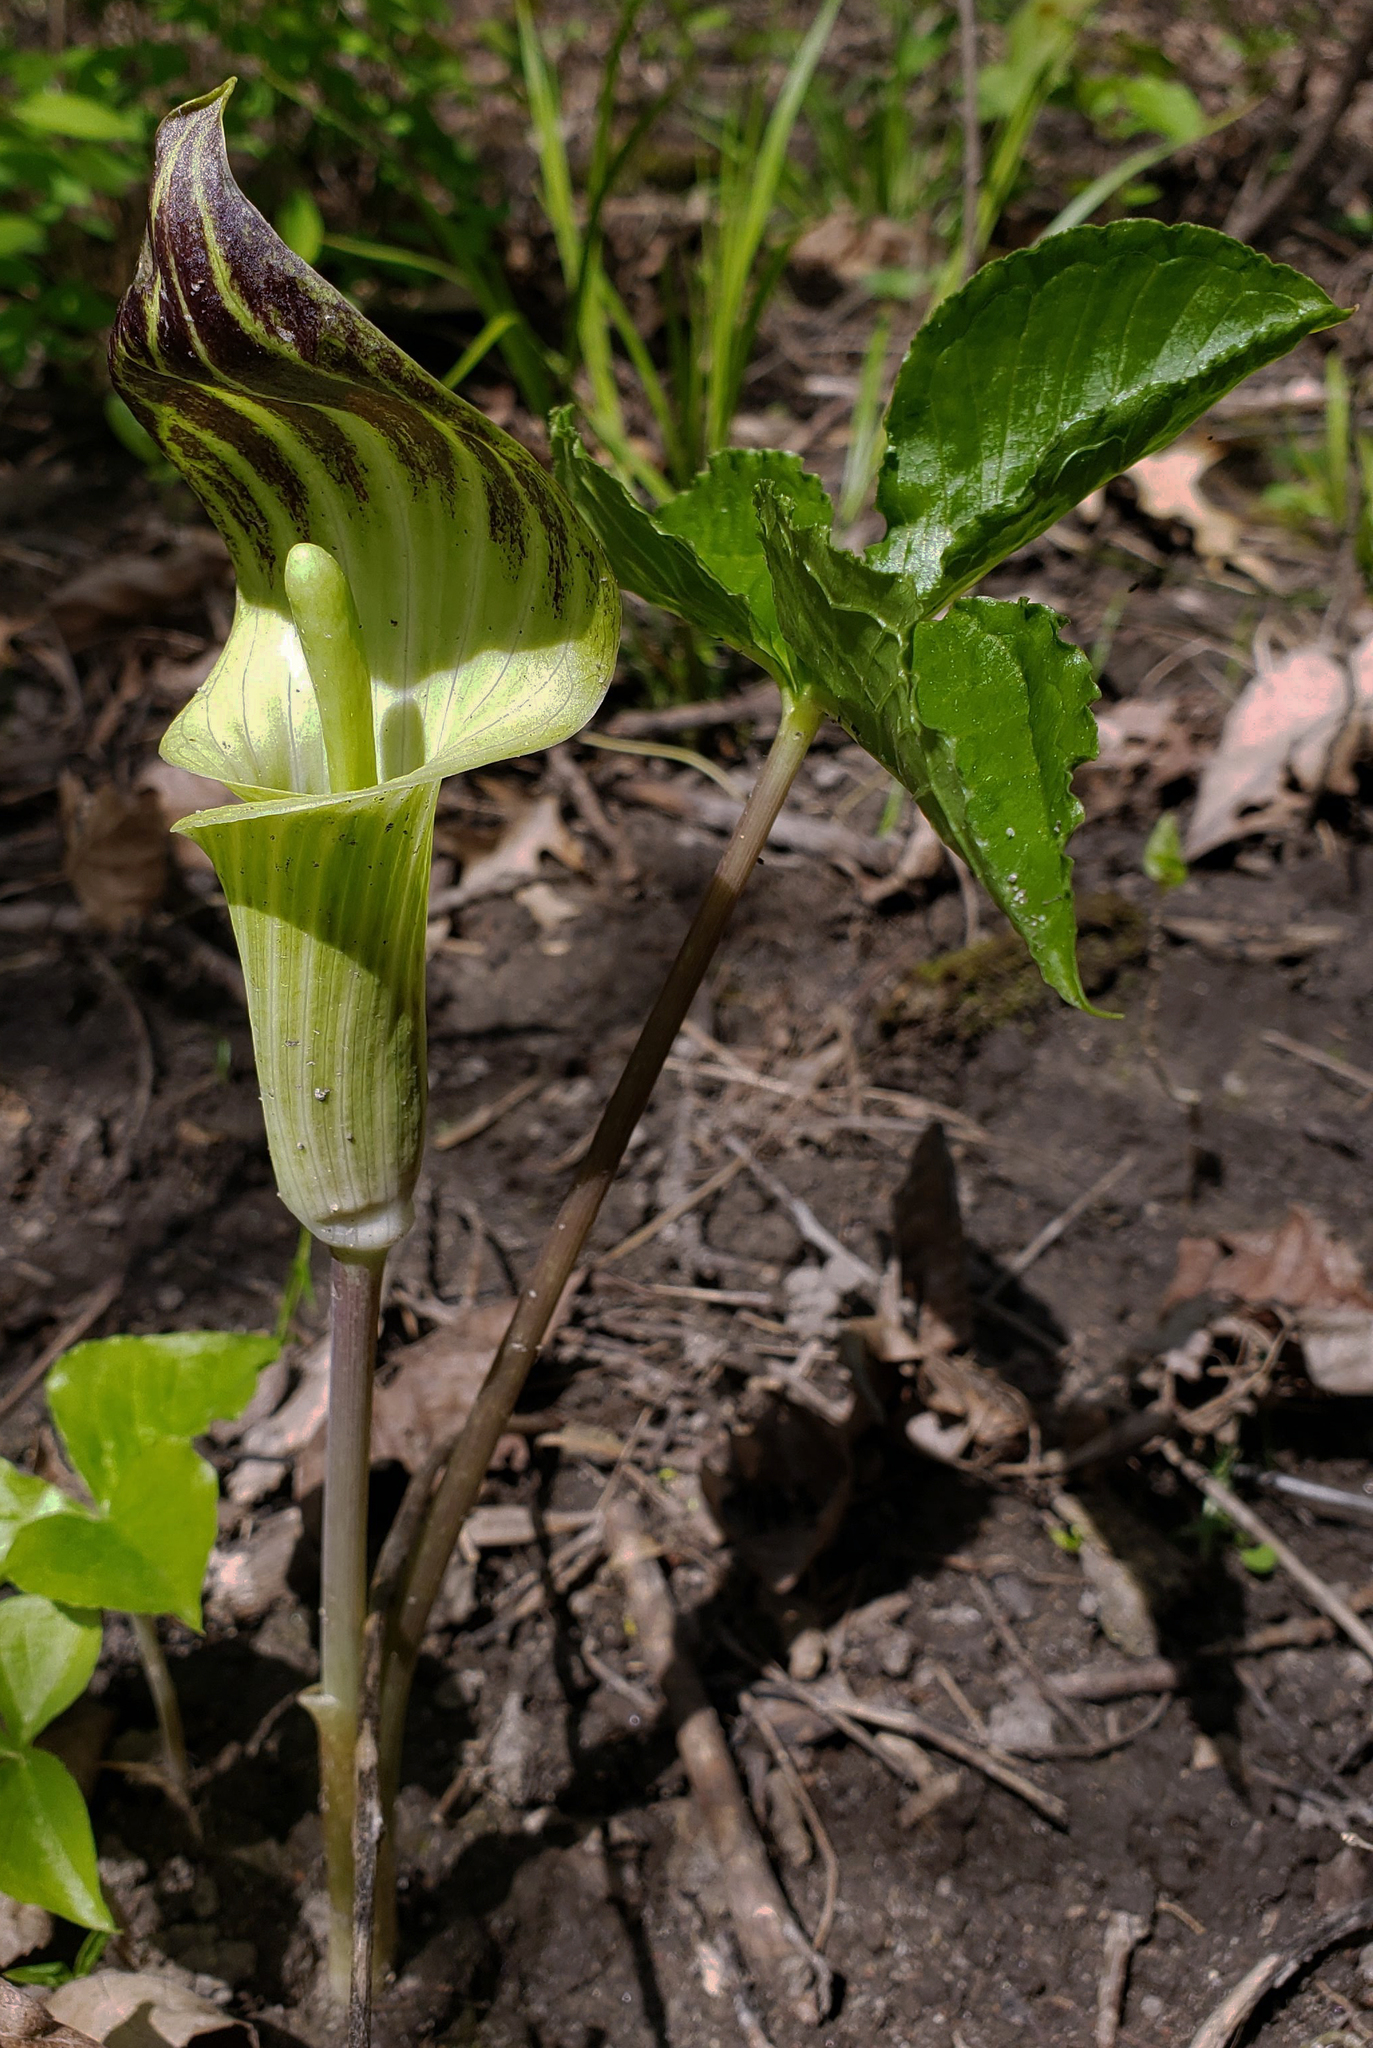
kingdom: Plantae
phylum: Tracheophyta
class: Liliopsida
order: Alismatales
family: Araceae
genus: Arisaema
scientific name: Arisaema triphyllum
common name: Jack-in-the-pulpit
